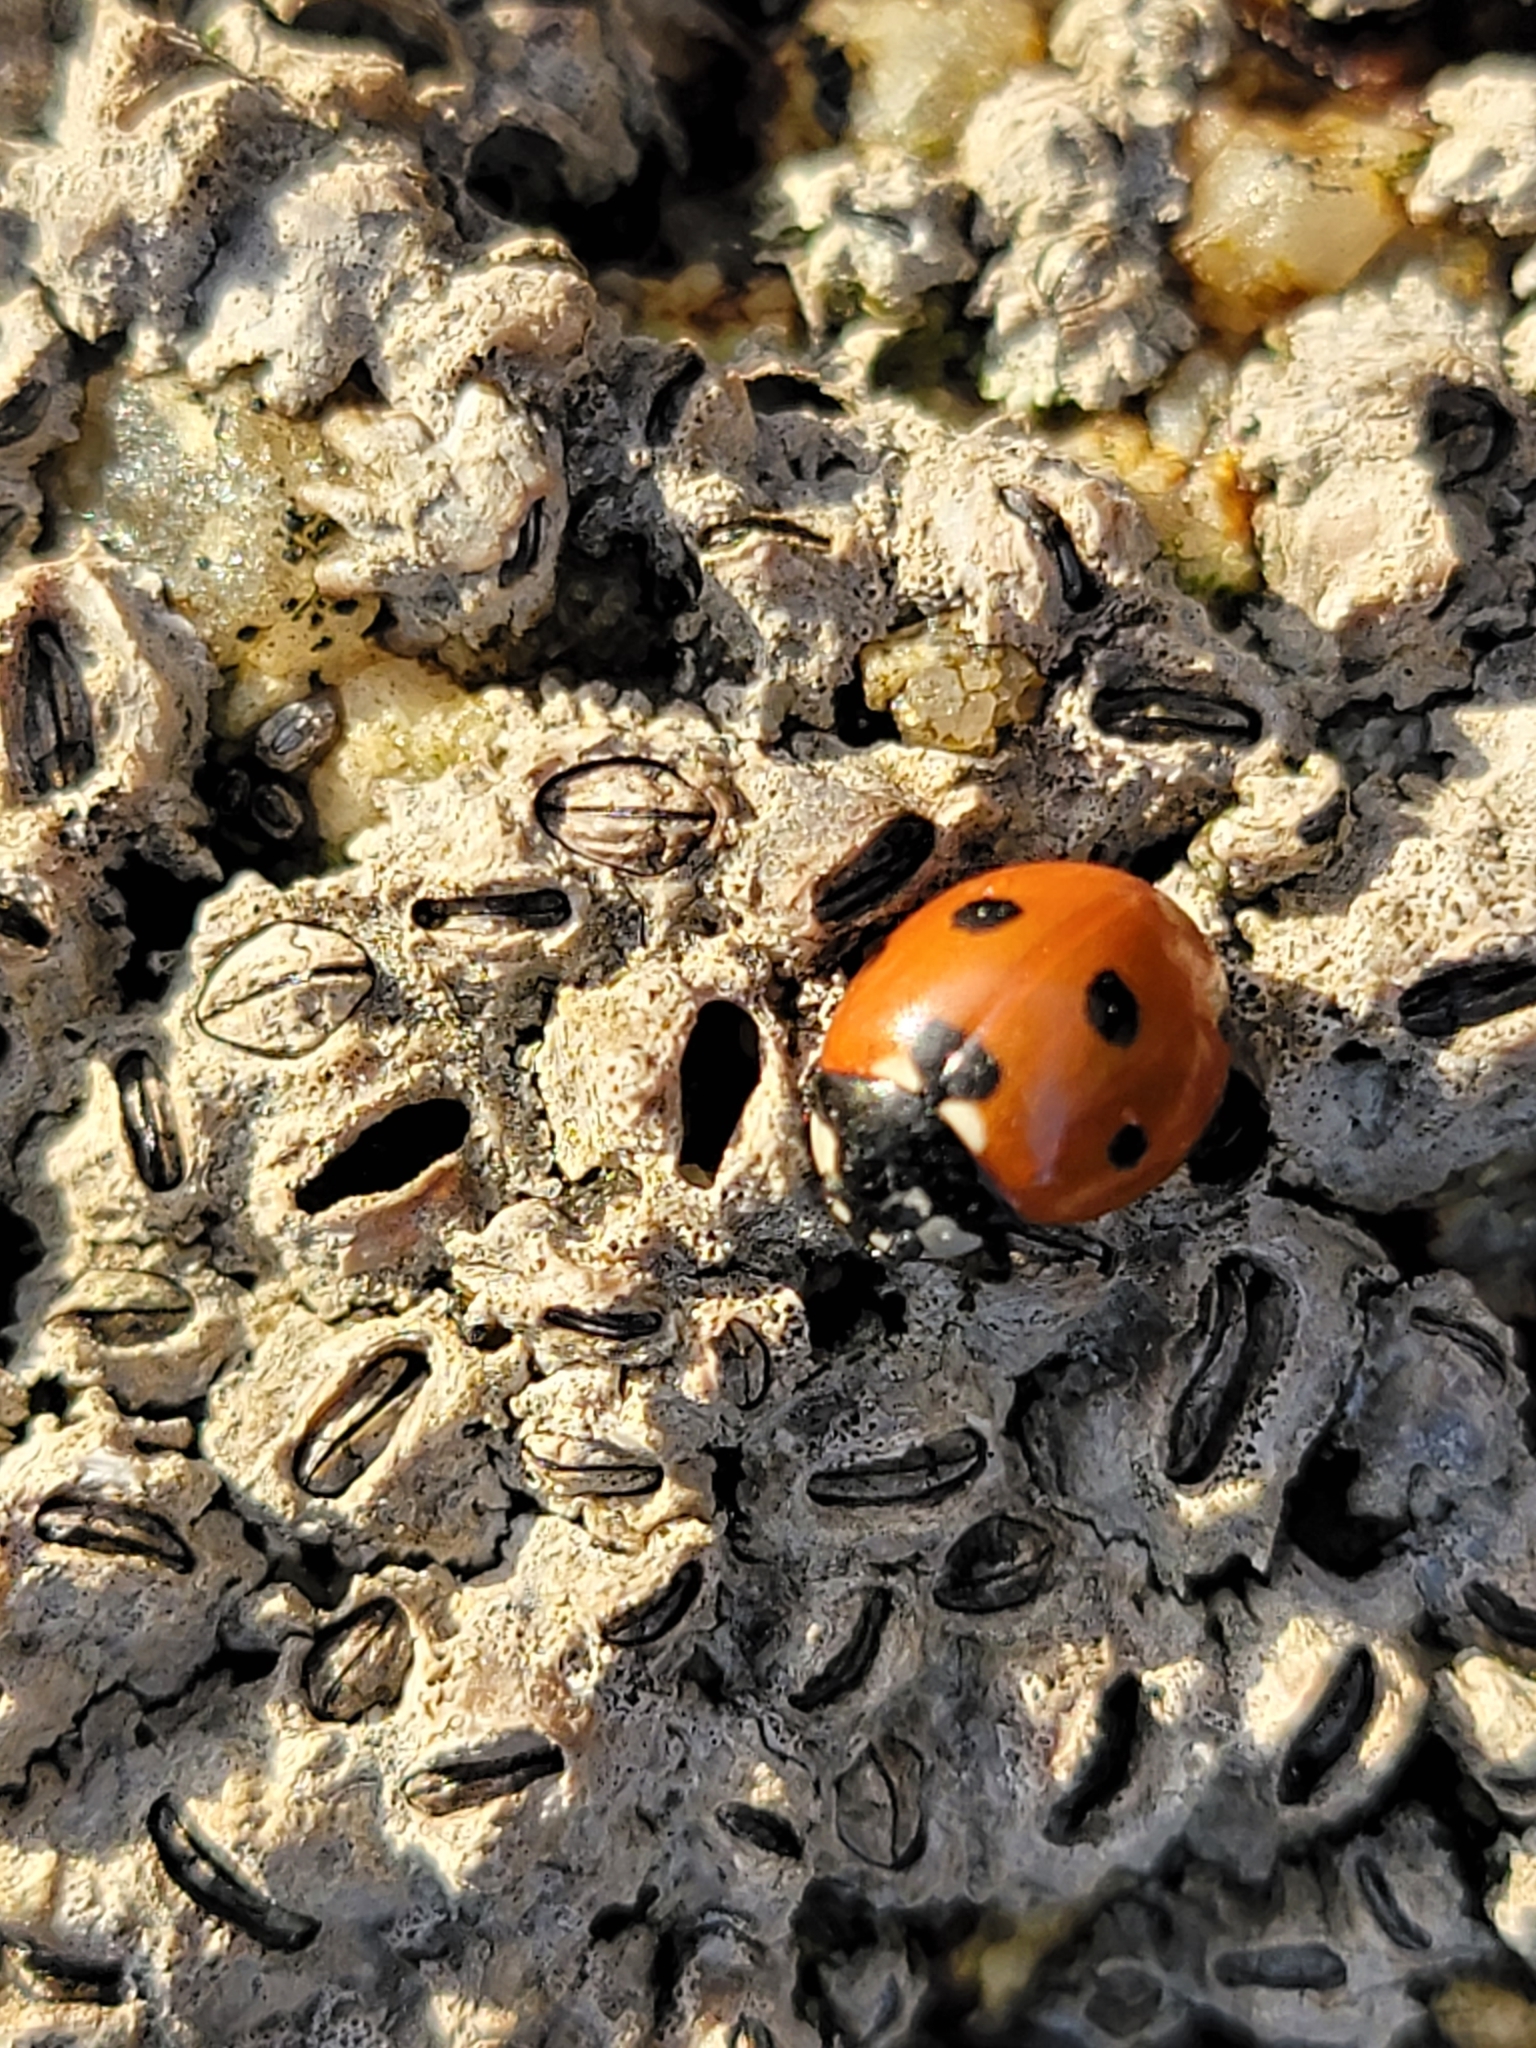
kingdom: Animalia
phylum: Arthropoda
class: Insecta
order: Coleoptera
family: Coccinellidae
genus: Coccinella
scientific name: Coccinella septempunctata
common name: Sevenspotted lady beetle
